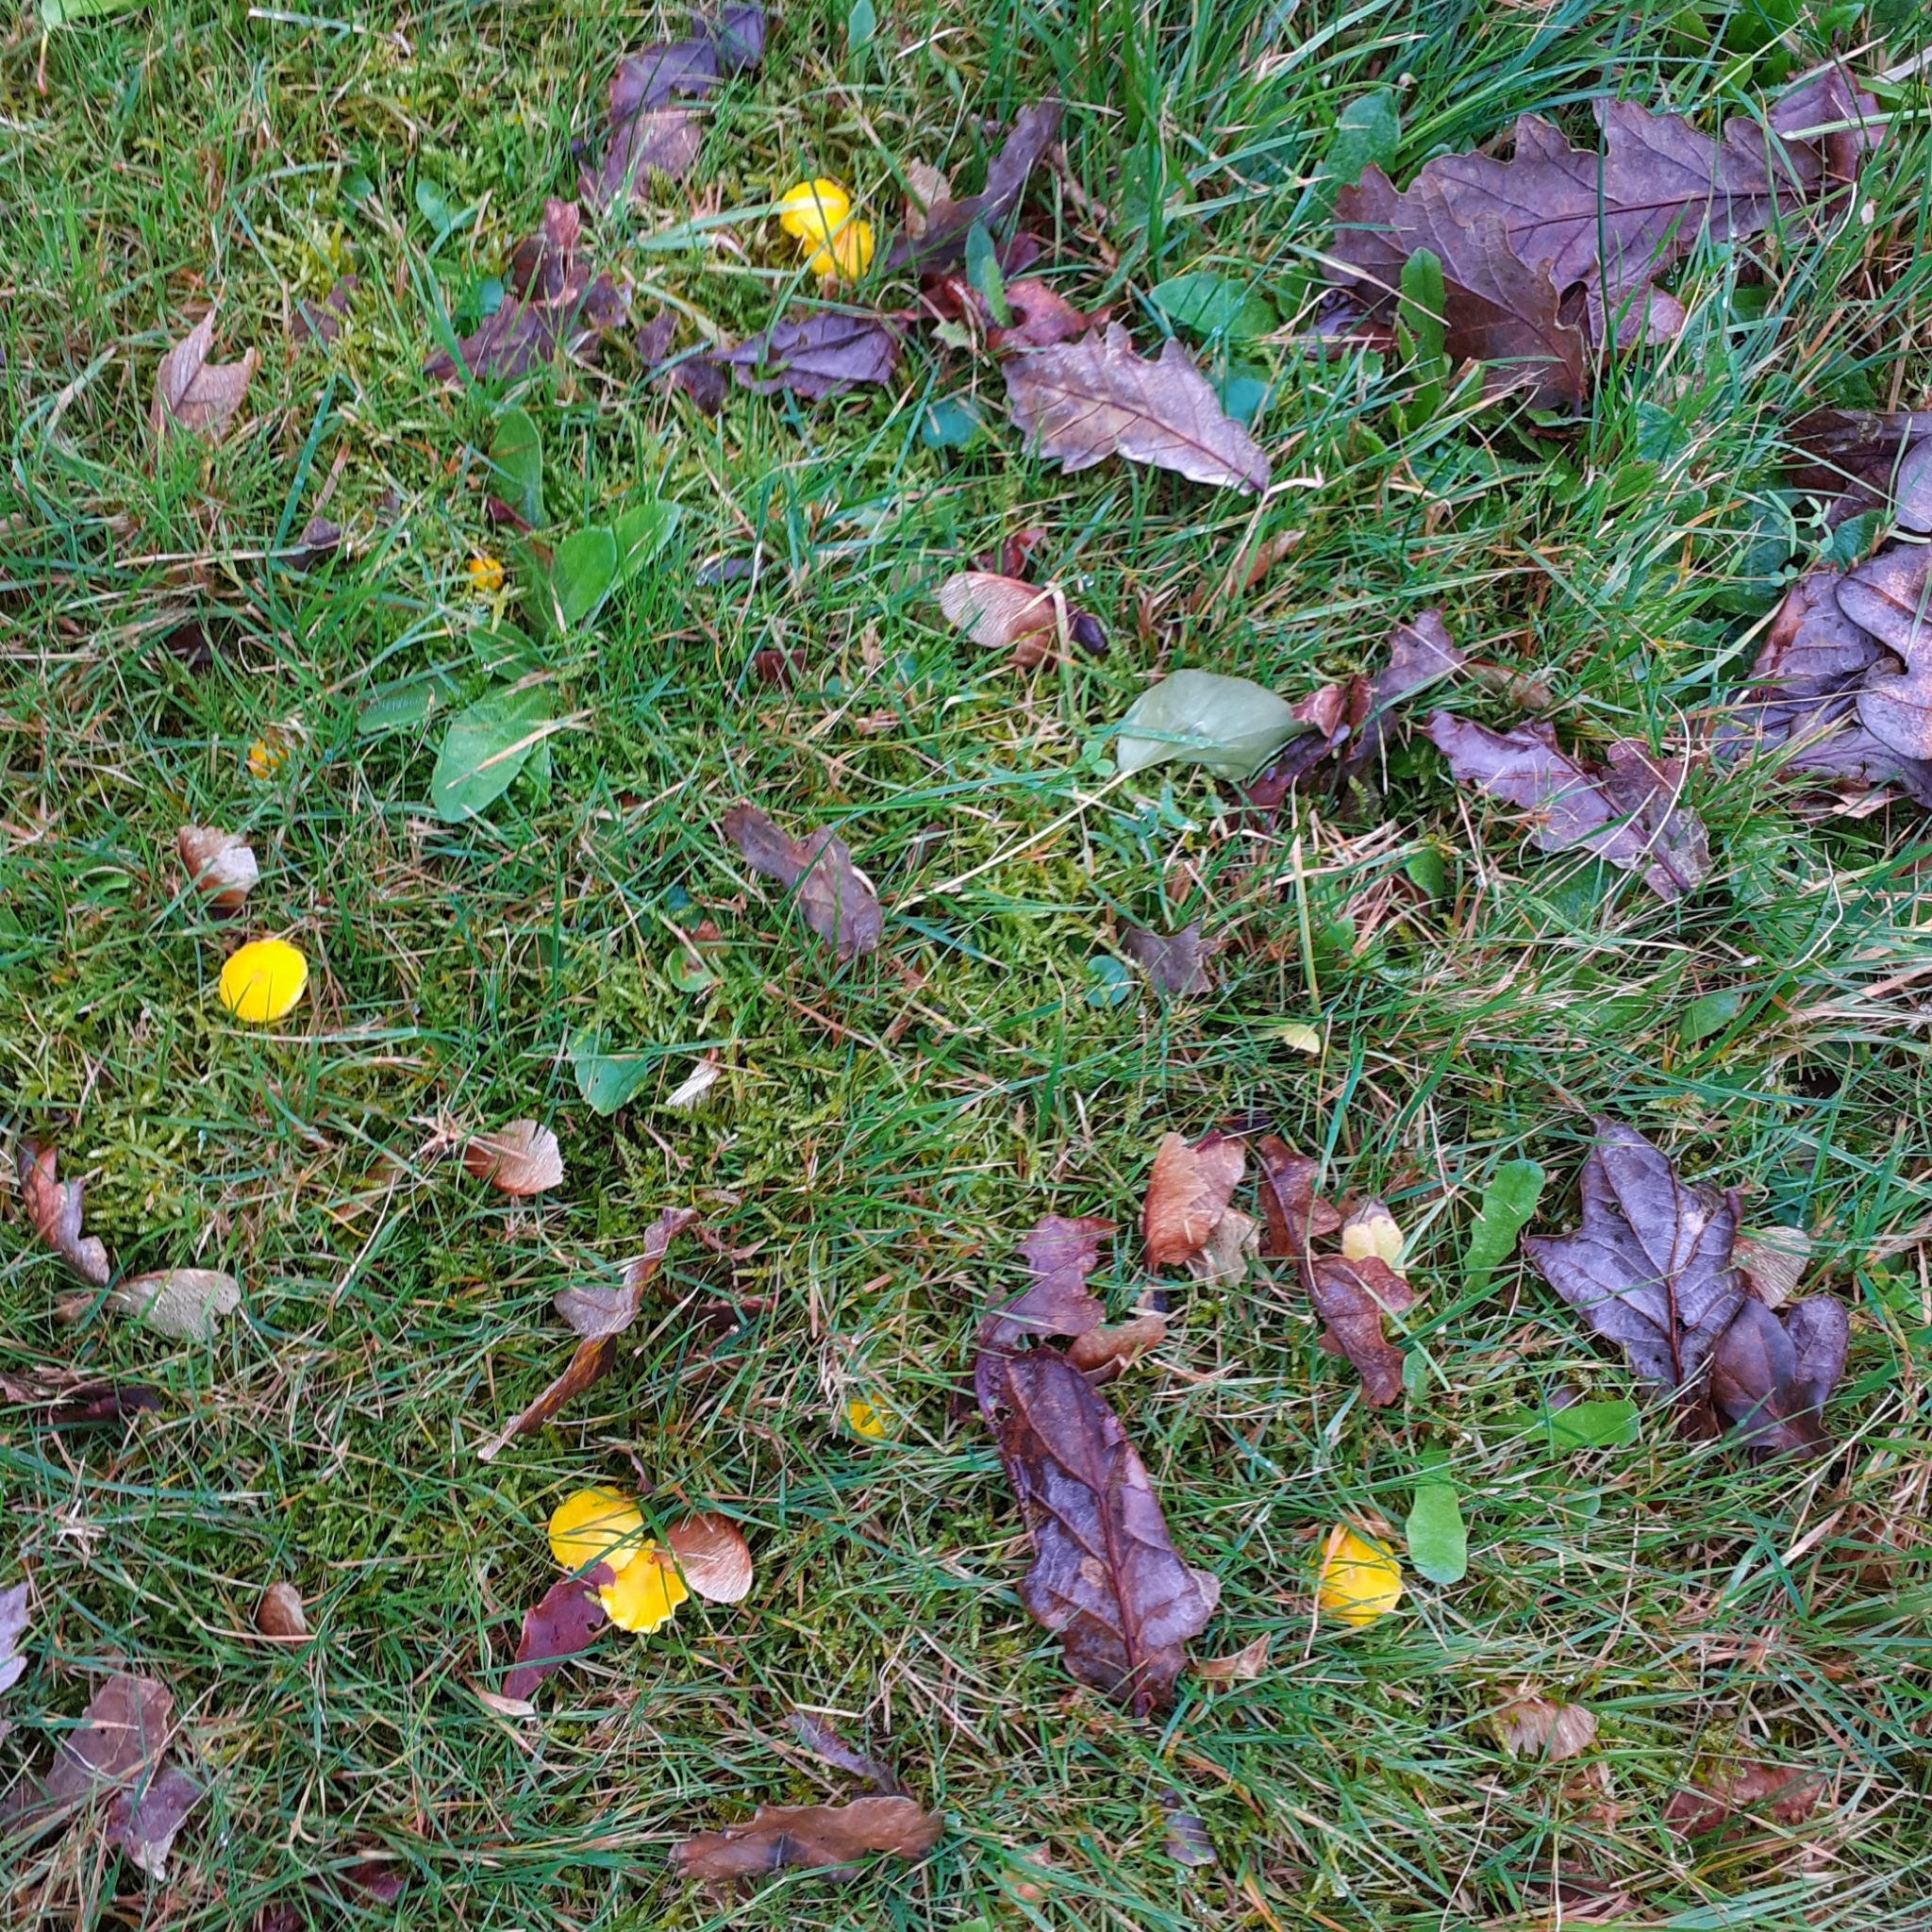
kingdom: Fungi
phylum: Basidiomycota
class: Agaricomycetes
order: Agaricales
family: Hygrophoraceae
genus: Hygrocybe
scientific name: Hygrocybe ceracea
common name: Butter waxcap
